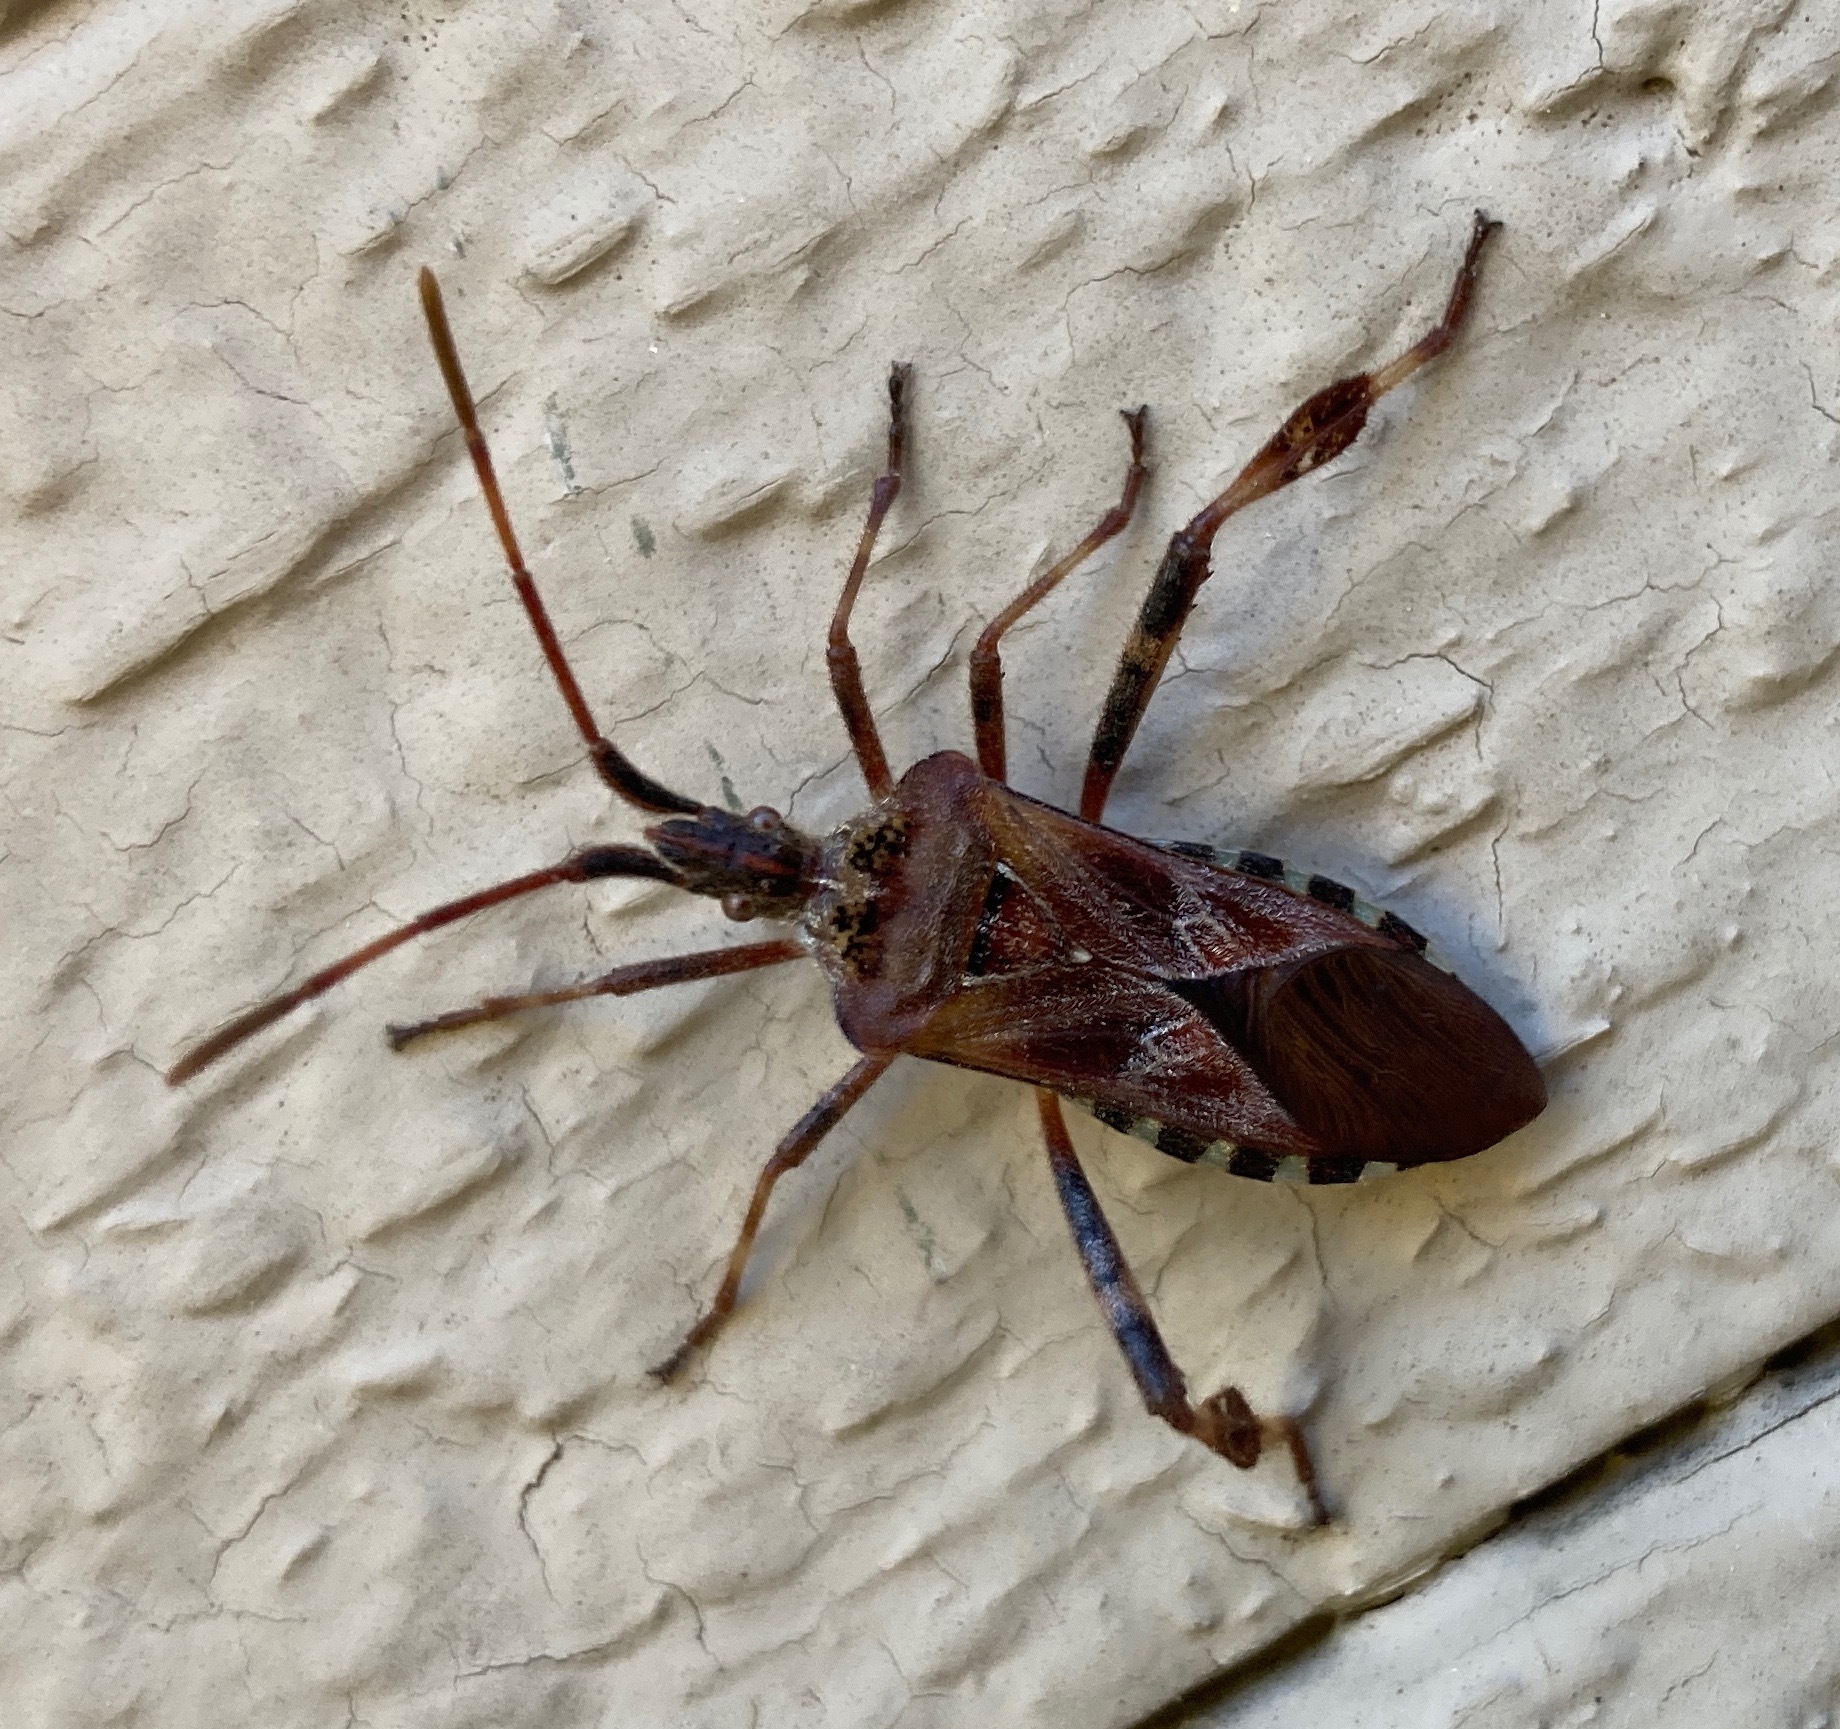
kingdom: Animalia
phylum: Arthropoda
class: Insecta
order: Hemiptera
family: Coreidae
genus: Leptoglossus
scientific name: Leptoglossus occidentalis
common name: Western conifer-seed bug
